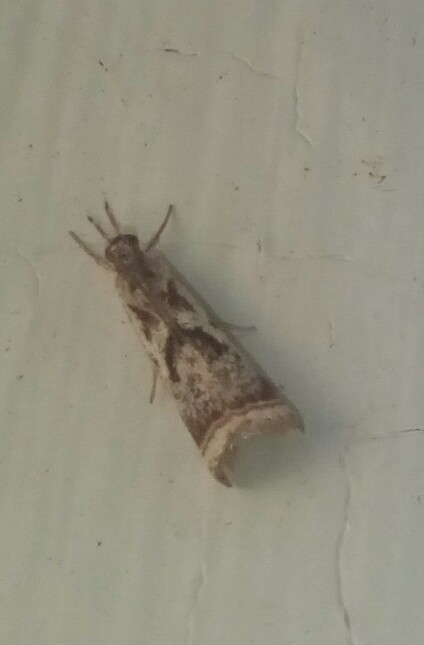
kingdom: Animalia
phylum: Arthropoda
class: Insecta
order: Lepidoptera
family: Crambidae
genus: Microcrambus
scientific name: Microcrambus elegans
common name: Elegant grass-veneer
